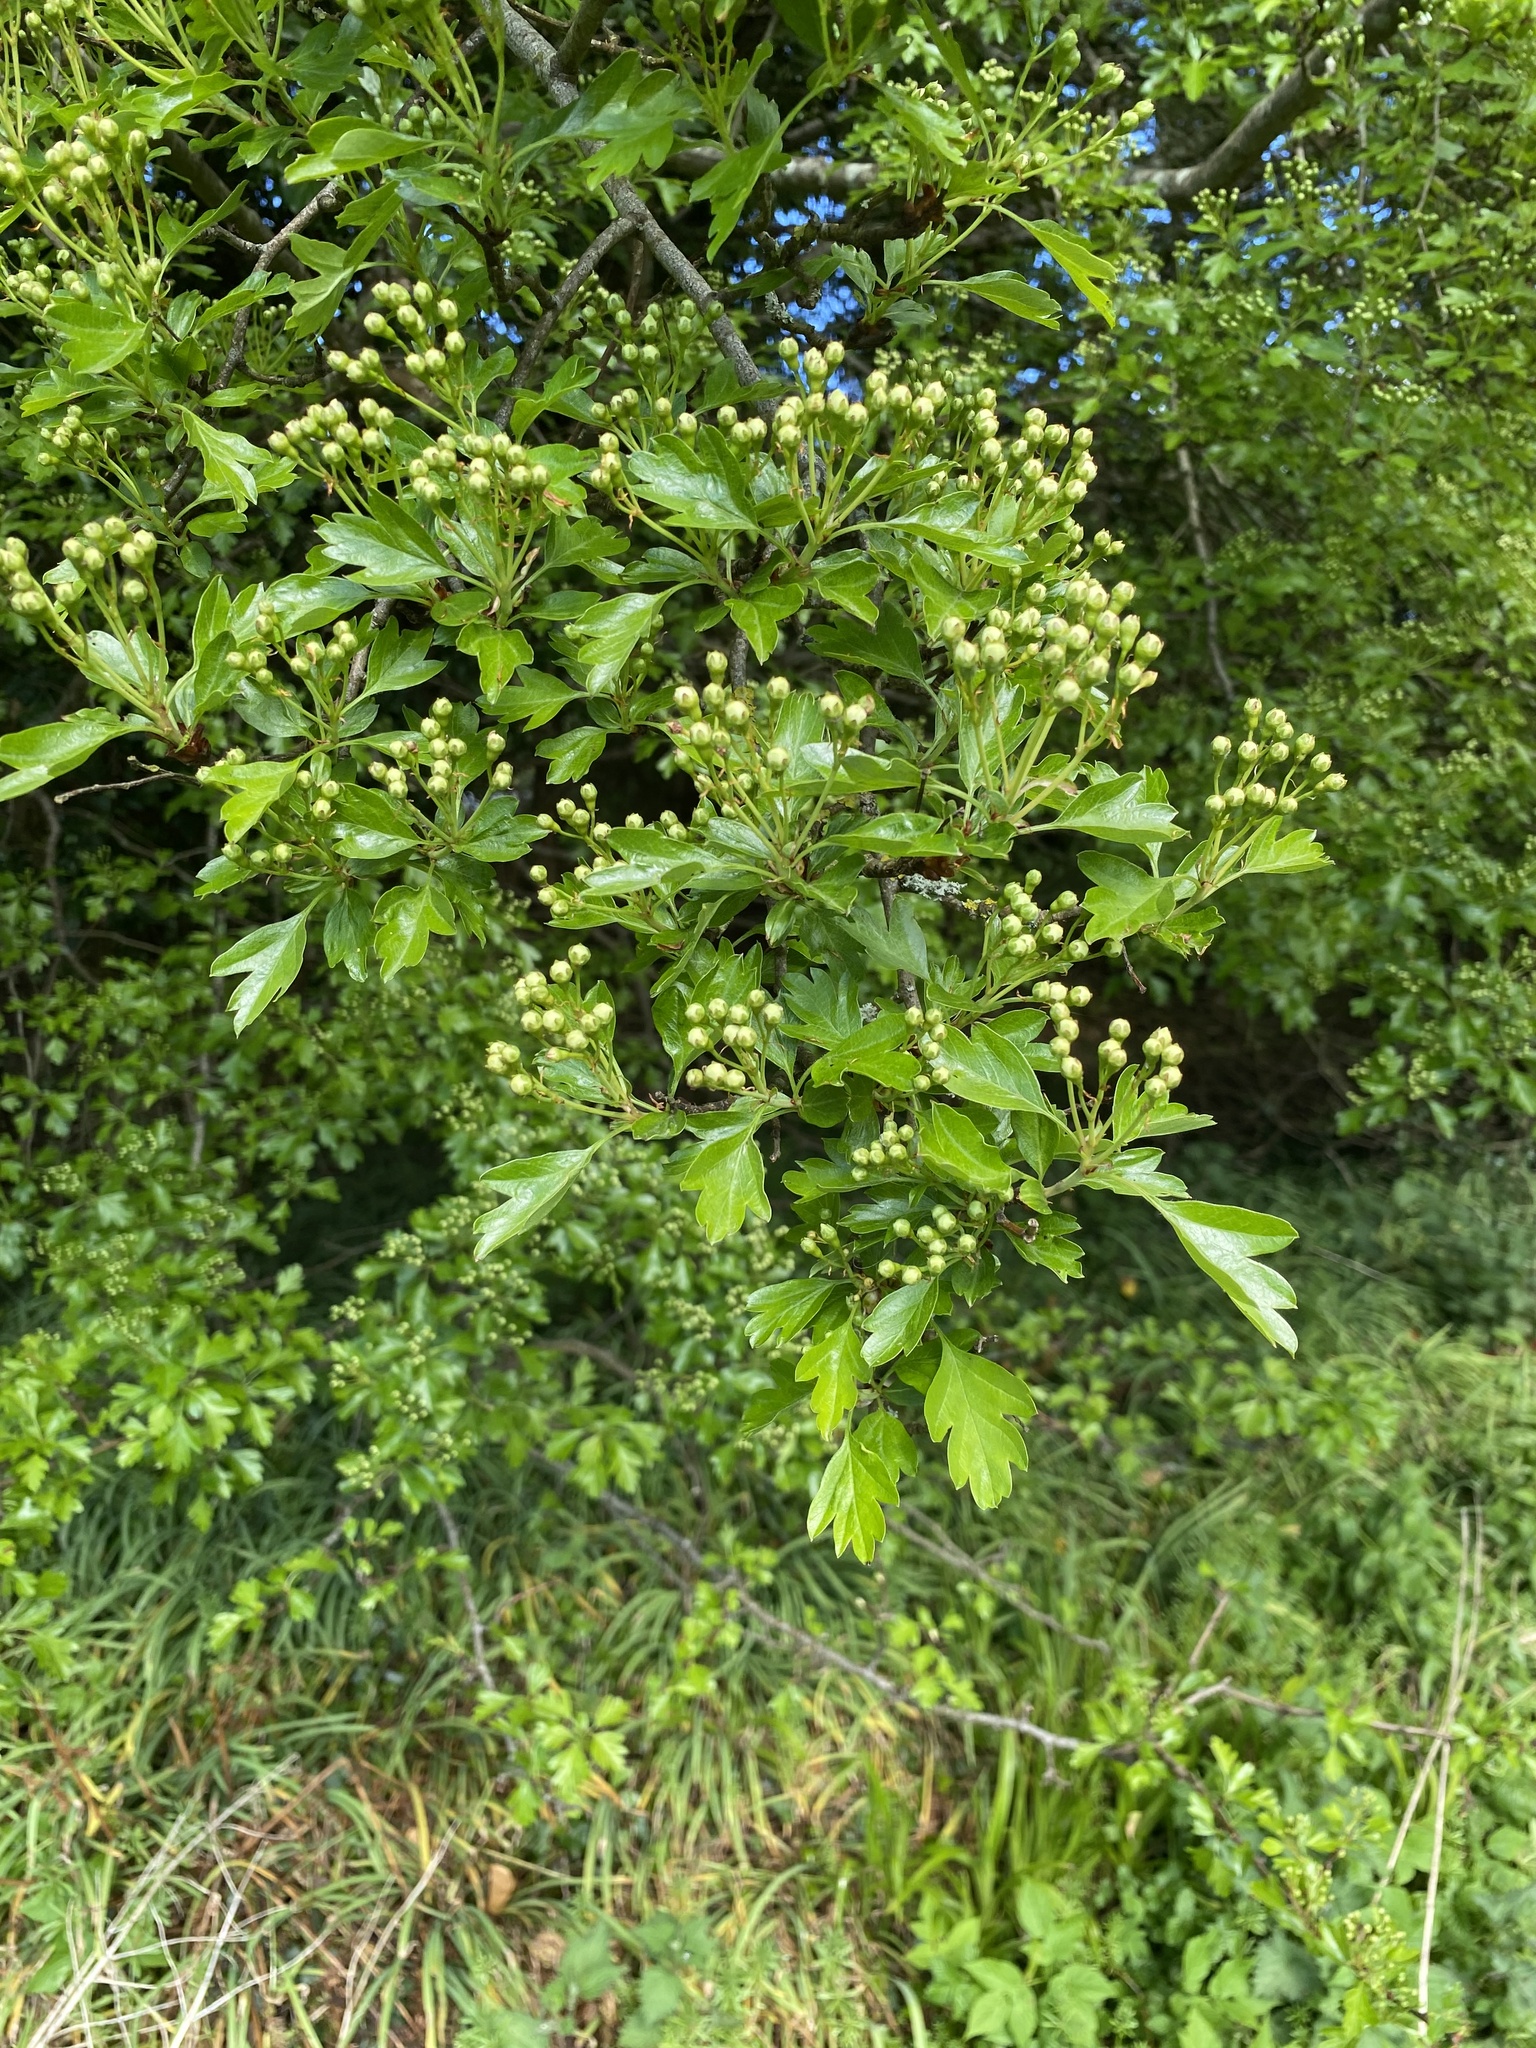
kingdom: Plantae
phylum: Tracheophyta
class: Magnoliopsida
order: Rosales
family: Rosaceae
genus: Crataegus
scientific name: Crataegus monogyna
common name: Hawthorn
